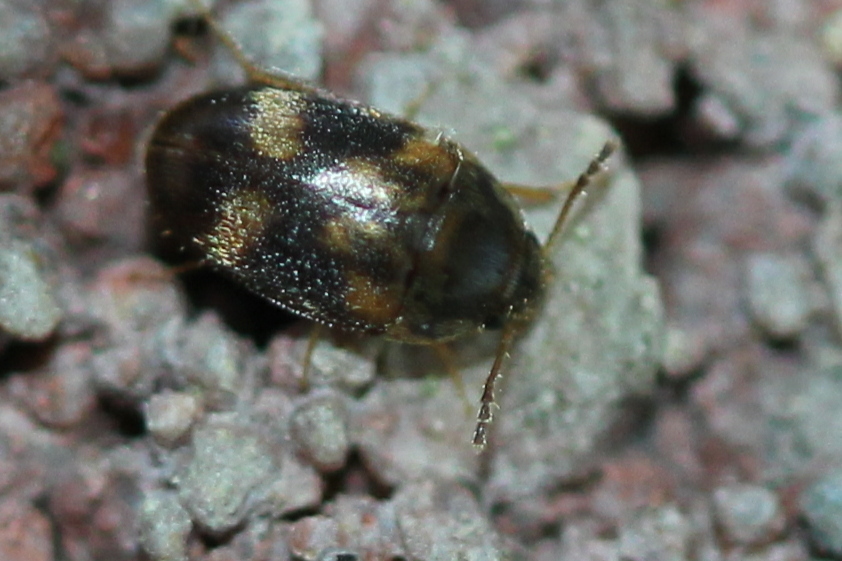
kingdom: Animalia
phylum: Arthropoda
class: Insecta
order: Coleoptera
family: Mycetophagidae
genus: Litargus
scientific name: Litargus balteatus
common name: Stored grain hairy fungus beetle
